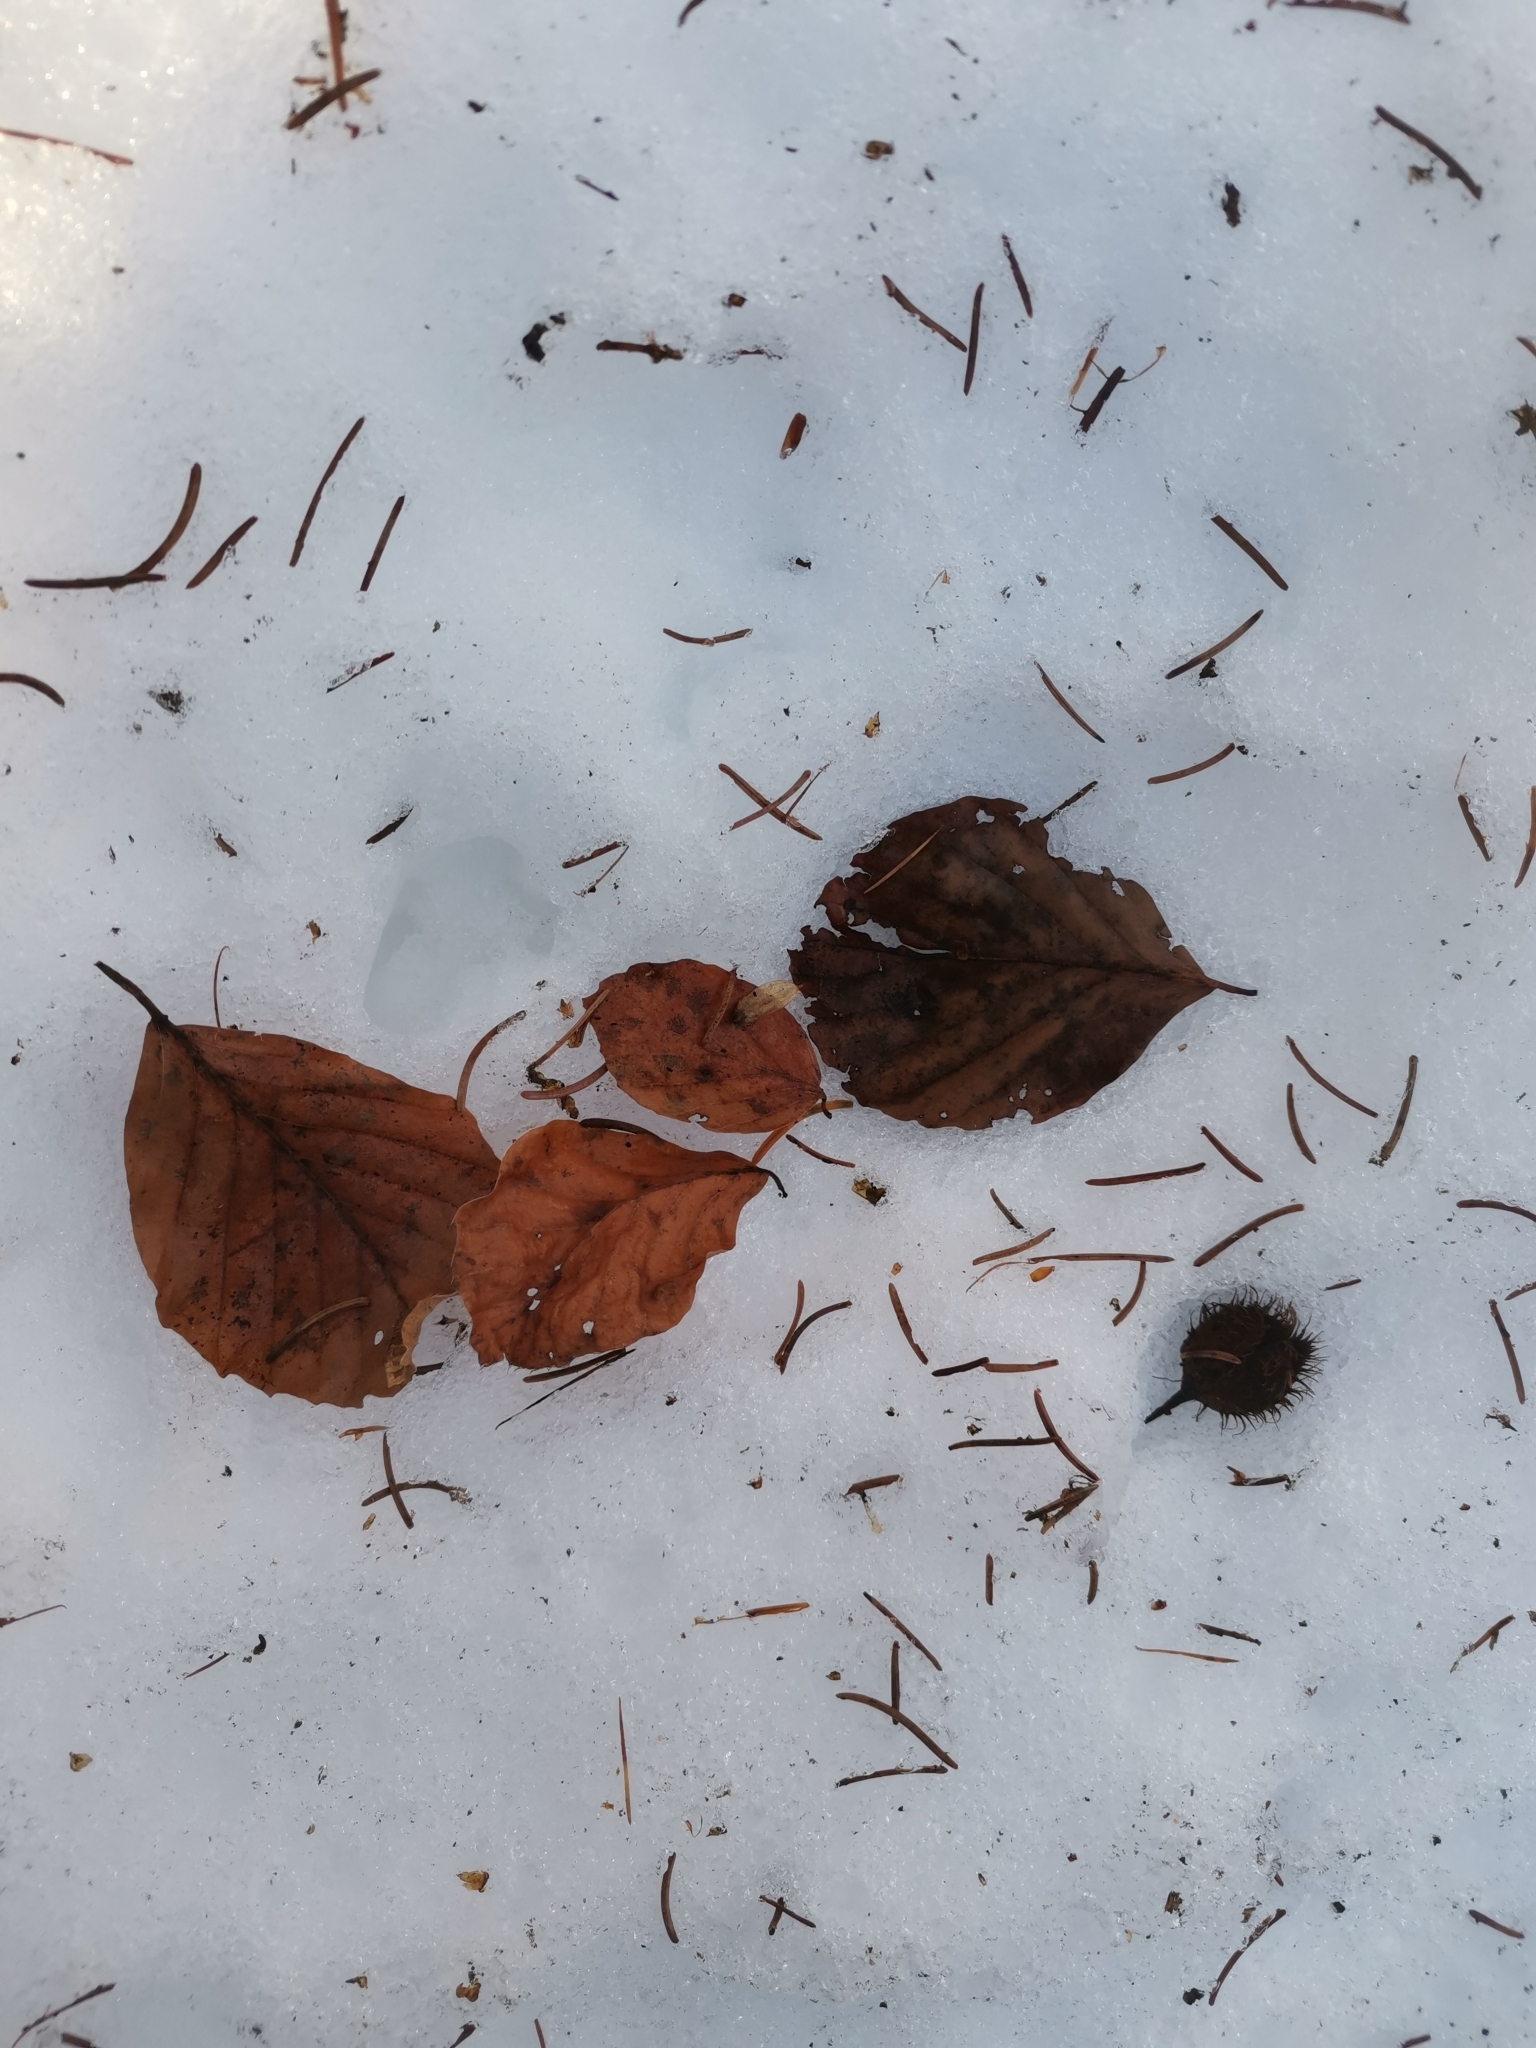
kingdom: Plantae
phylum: Tracheophyta
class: Magnoliopsida
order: Fagales
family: Fagaceae
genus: Fagus
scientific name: Fagus sylvatica
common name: Beech
